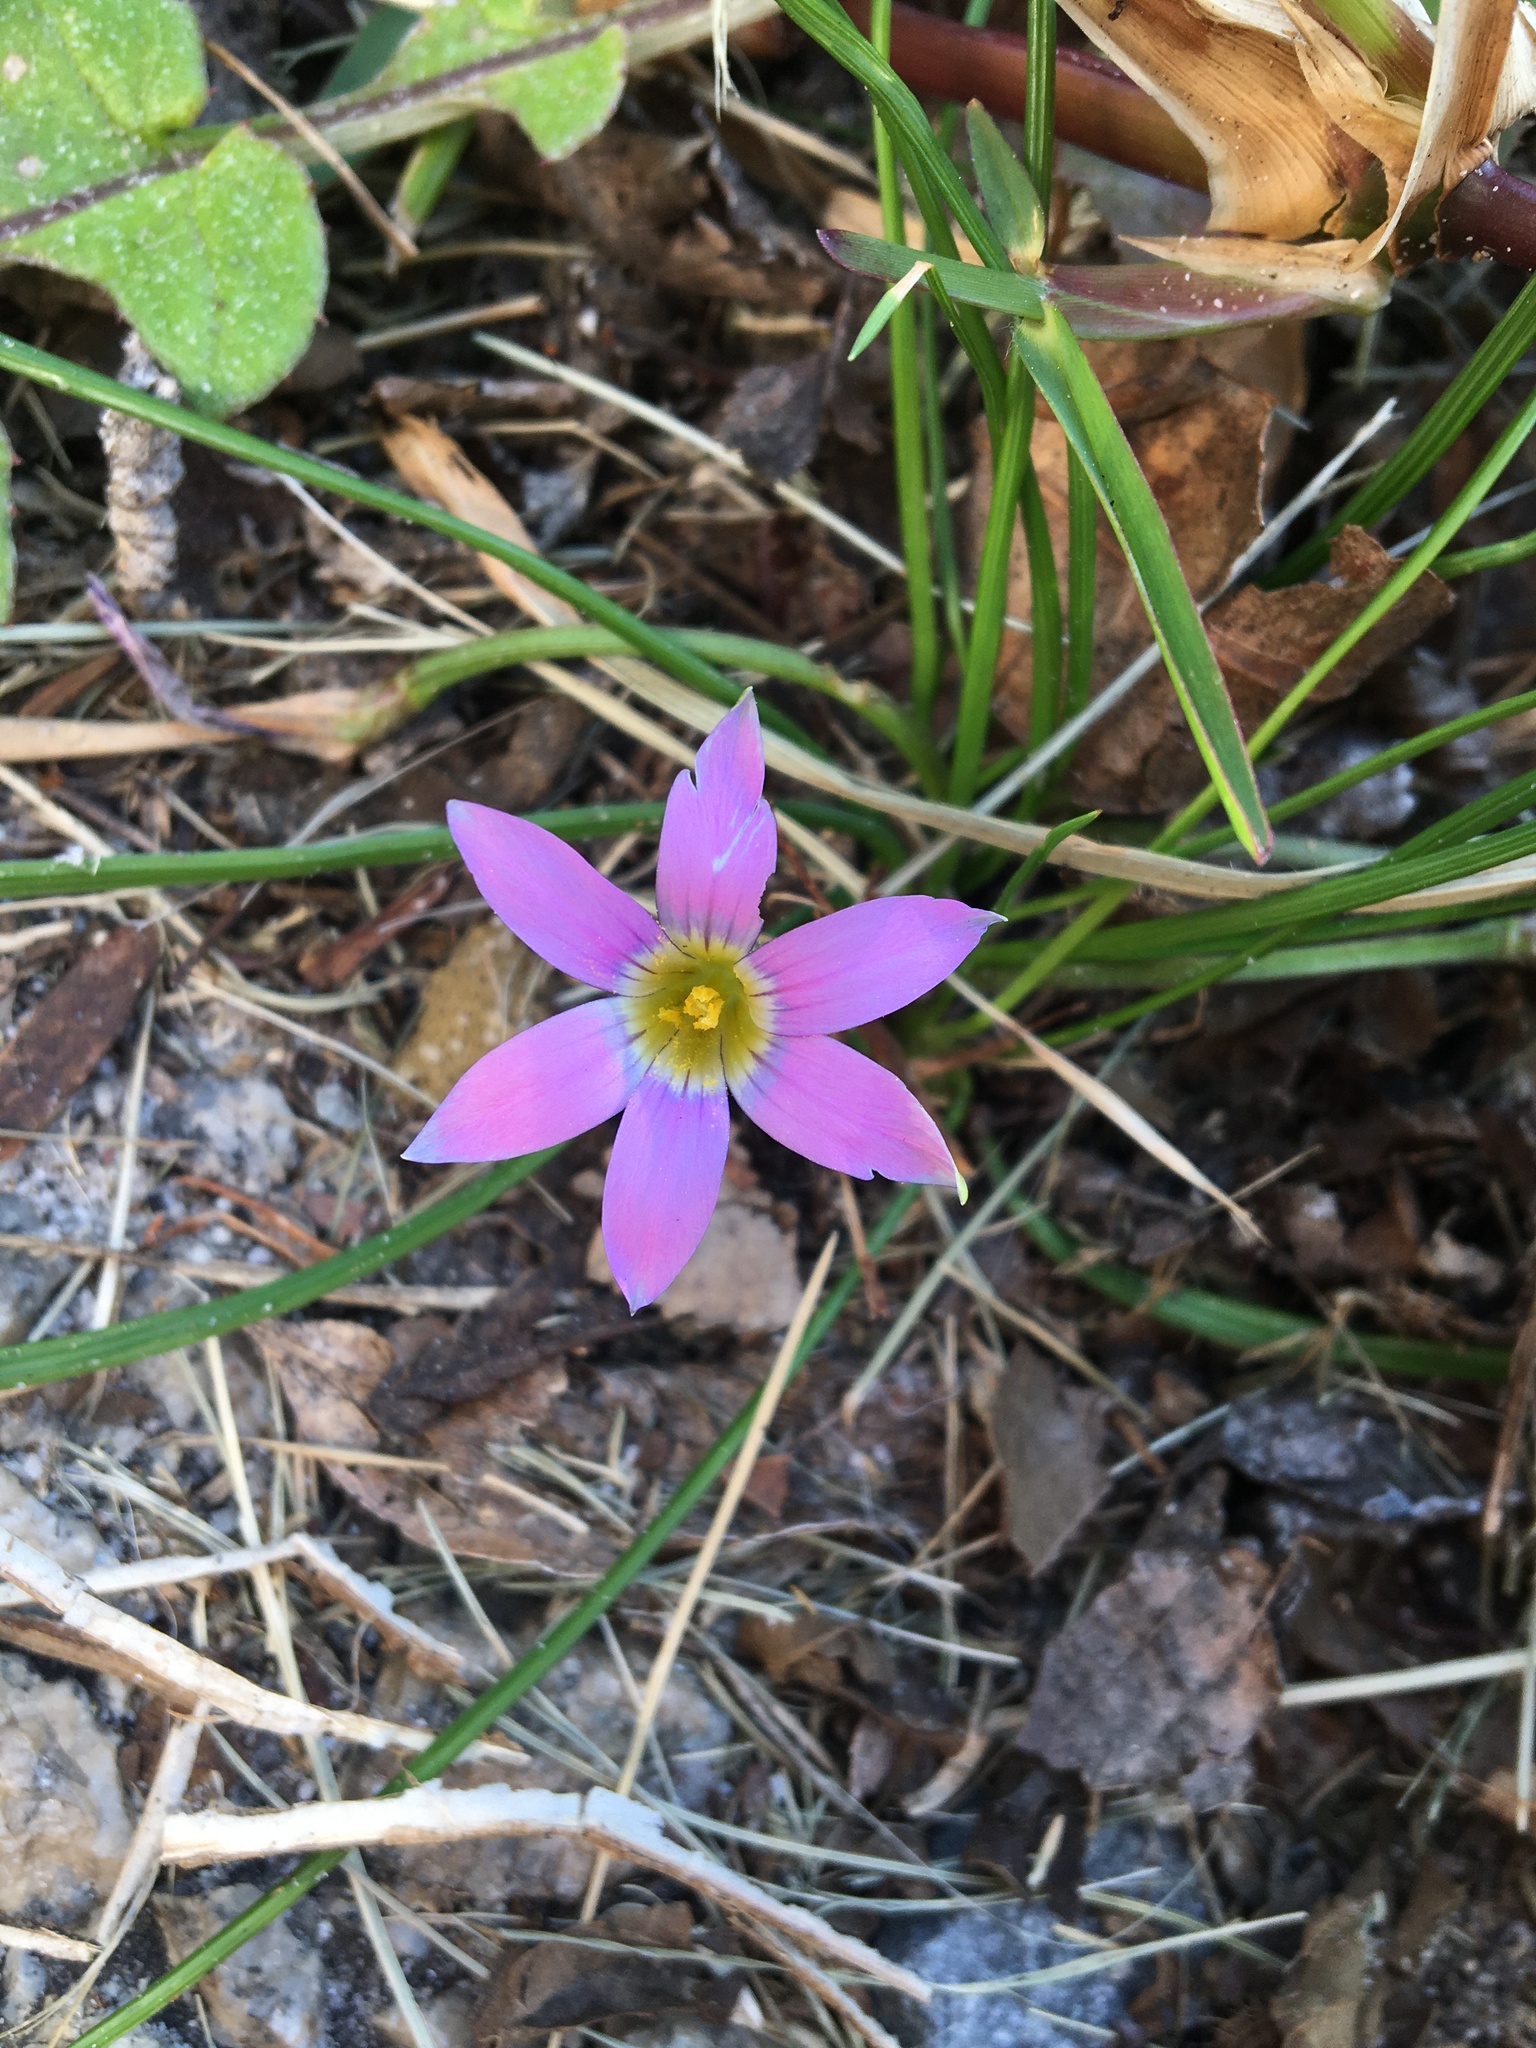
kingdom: Plantae
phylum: Tracheophyta
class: Liliopsida
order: Asparagales
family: Iridaceae
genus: Romulea
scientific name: Romulea rosea
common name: Oniongrass
